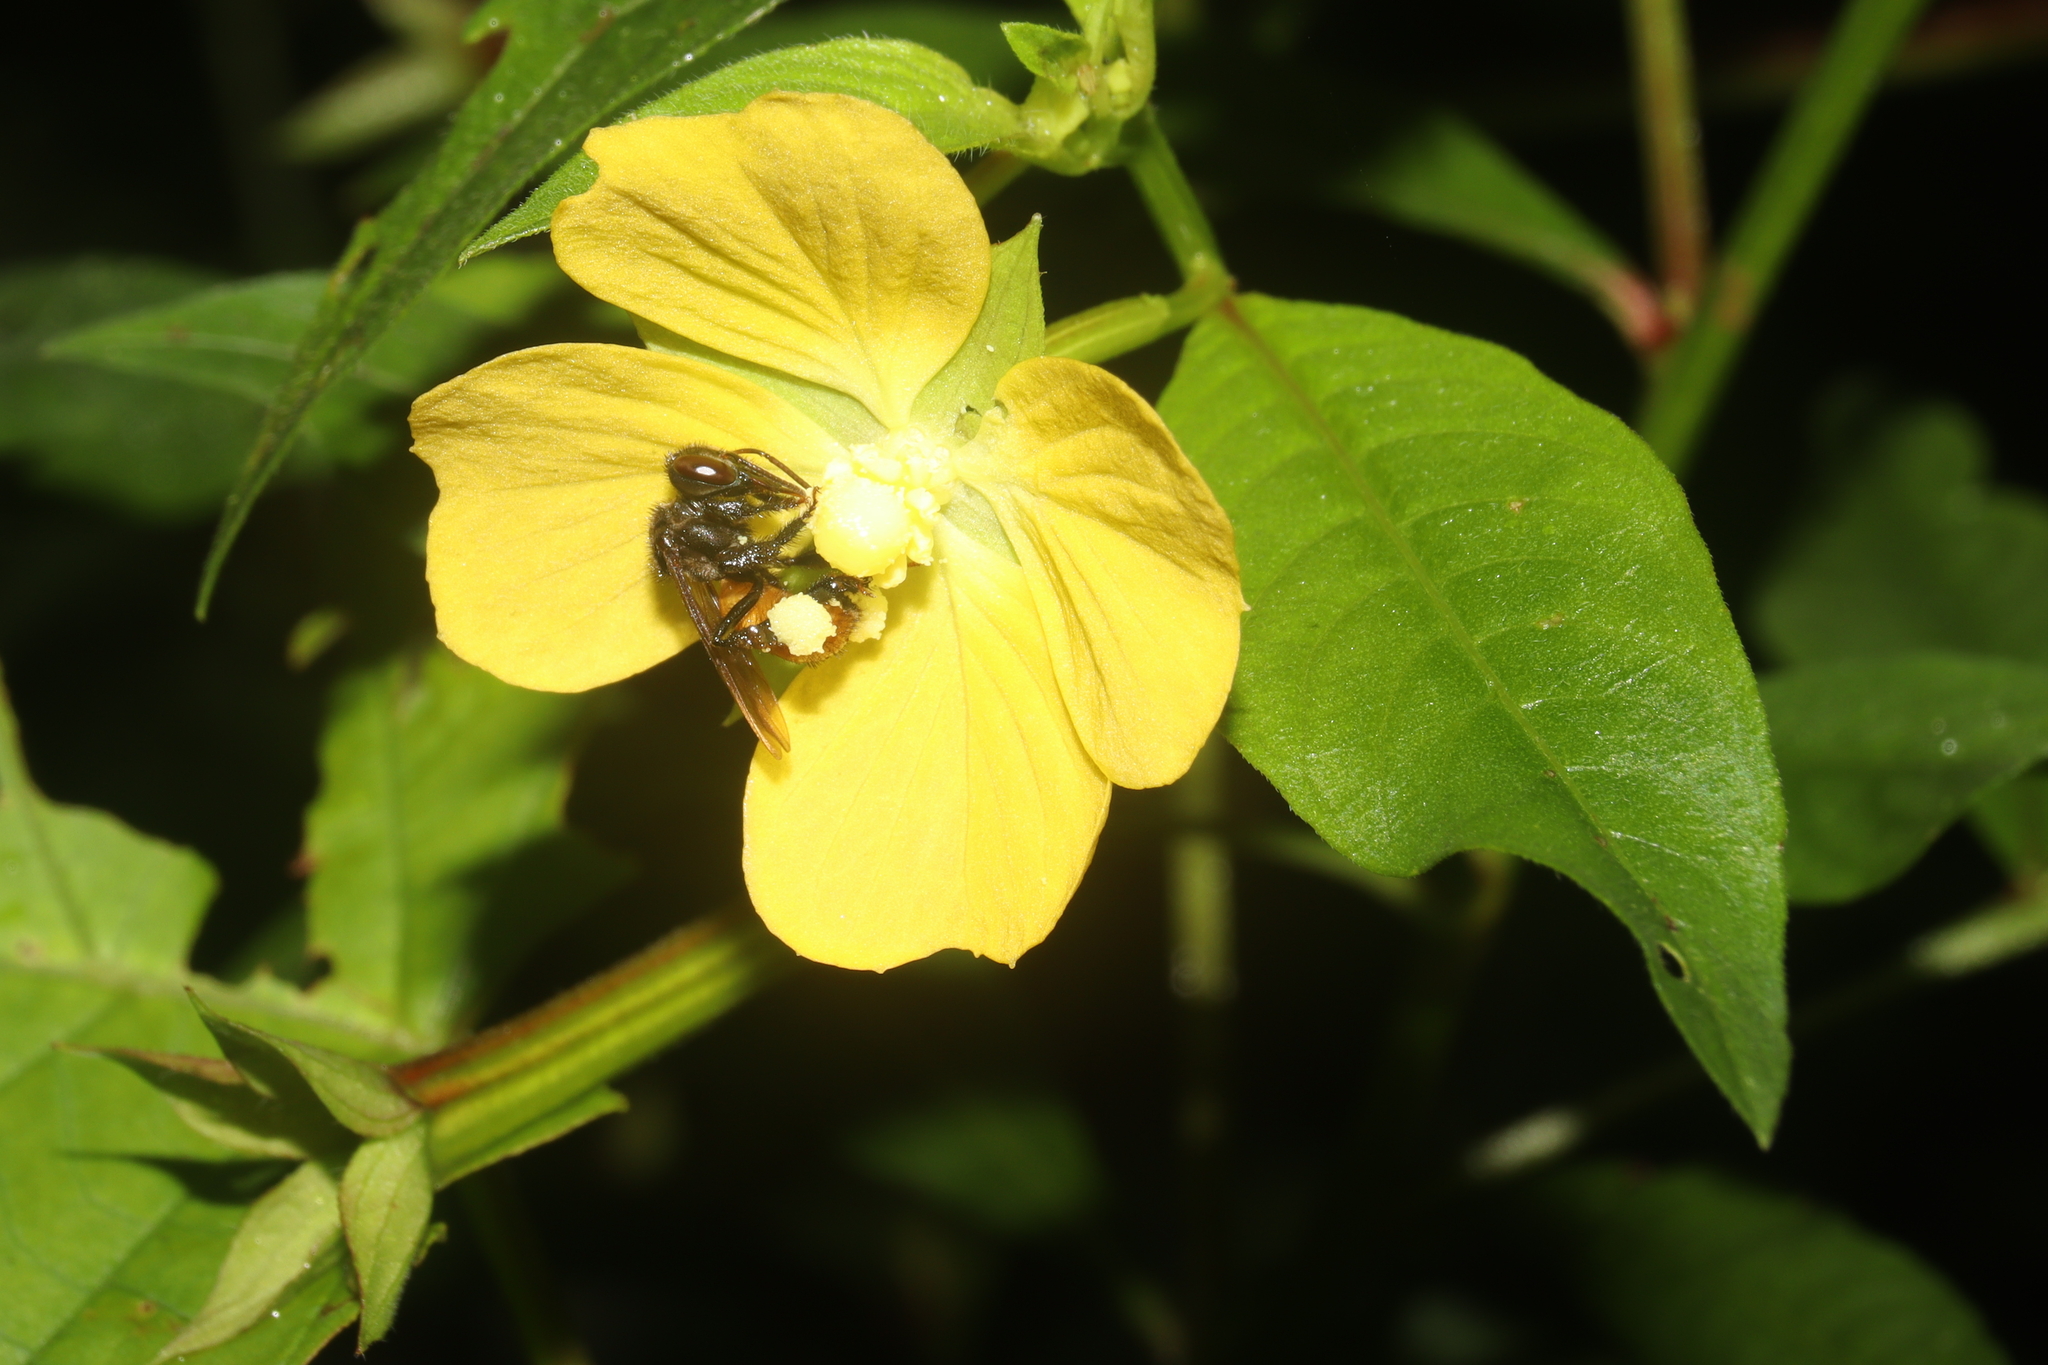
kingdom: Animalia
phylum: Arthropoda
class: Insecta
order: Hymenoptera
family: Apidae
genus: Trigona
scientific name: Trigona fulviventris
